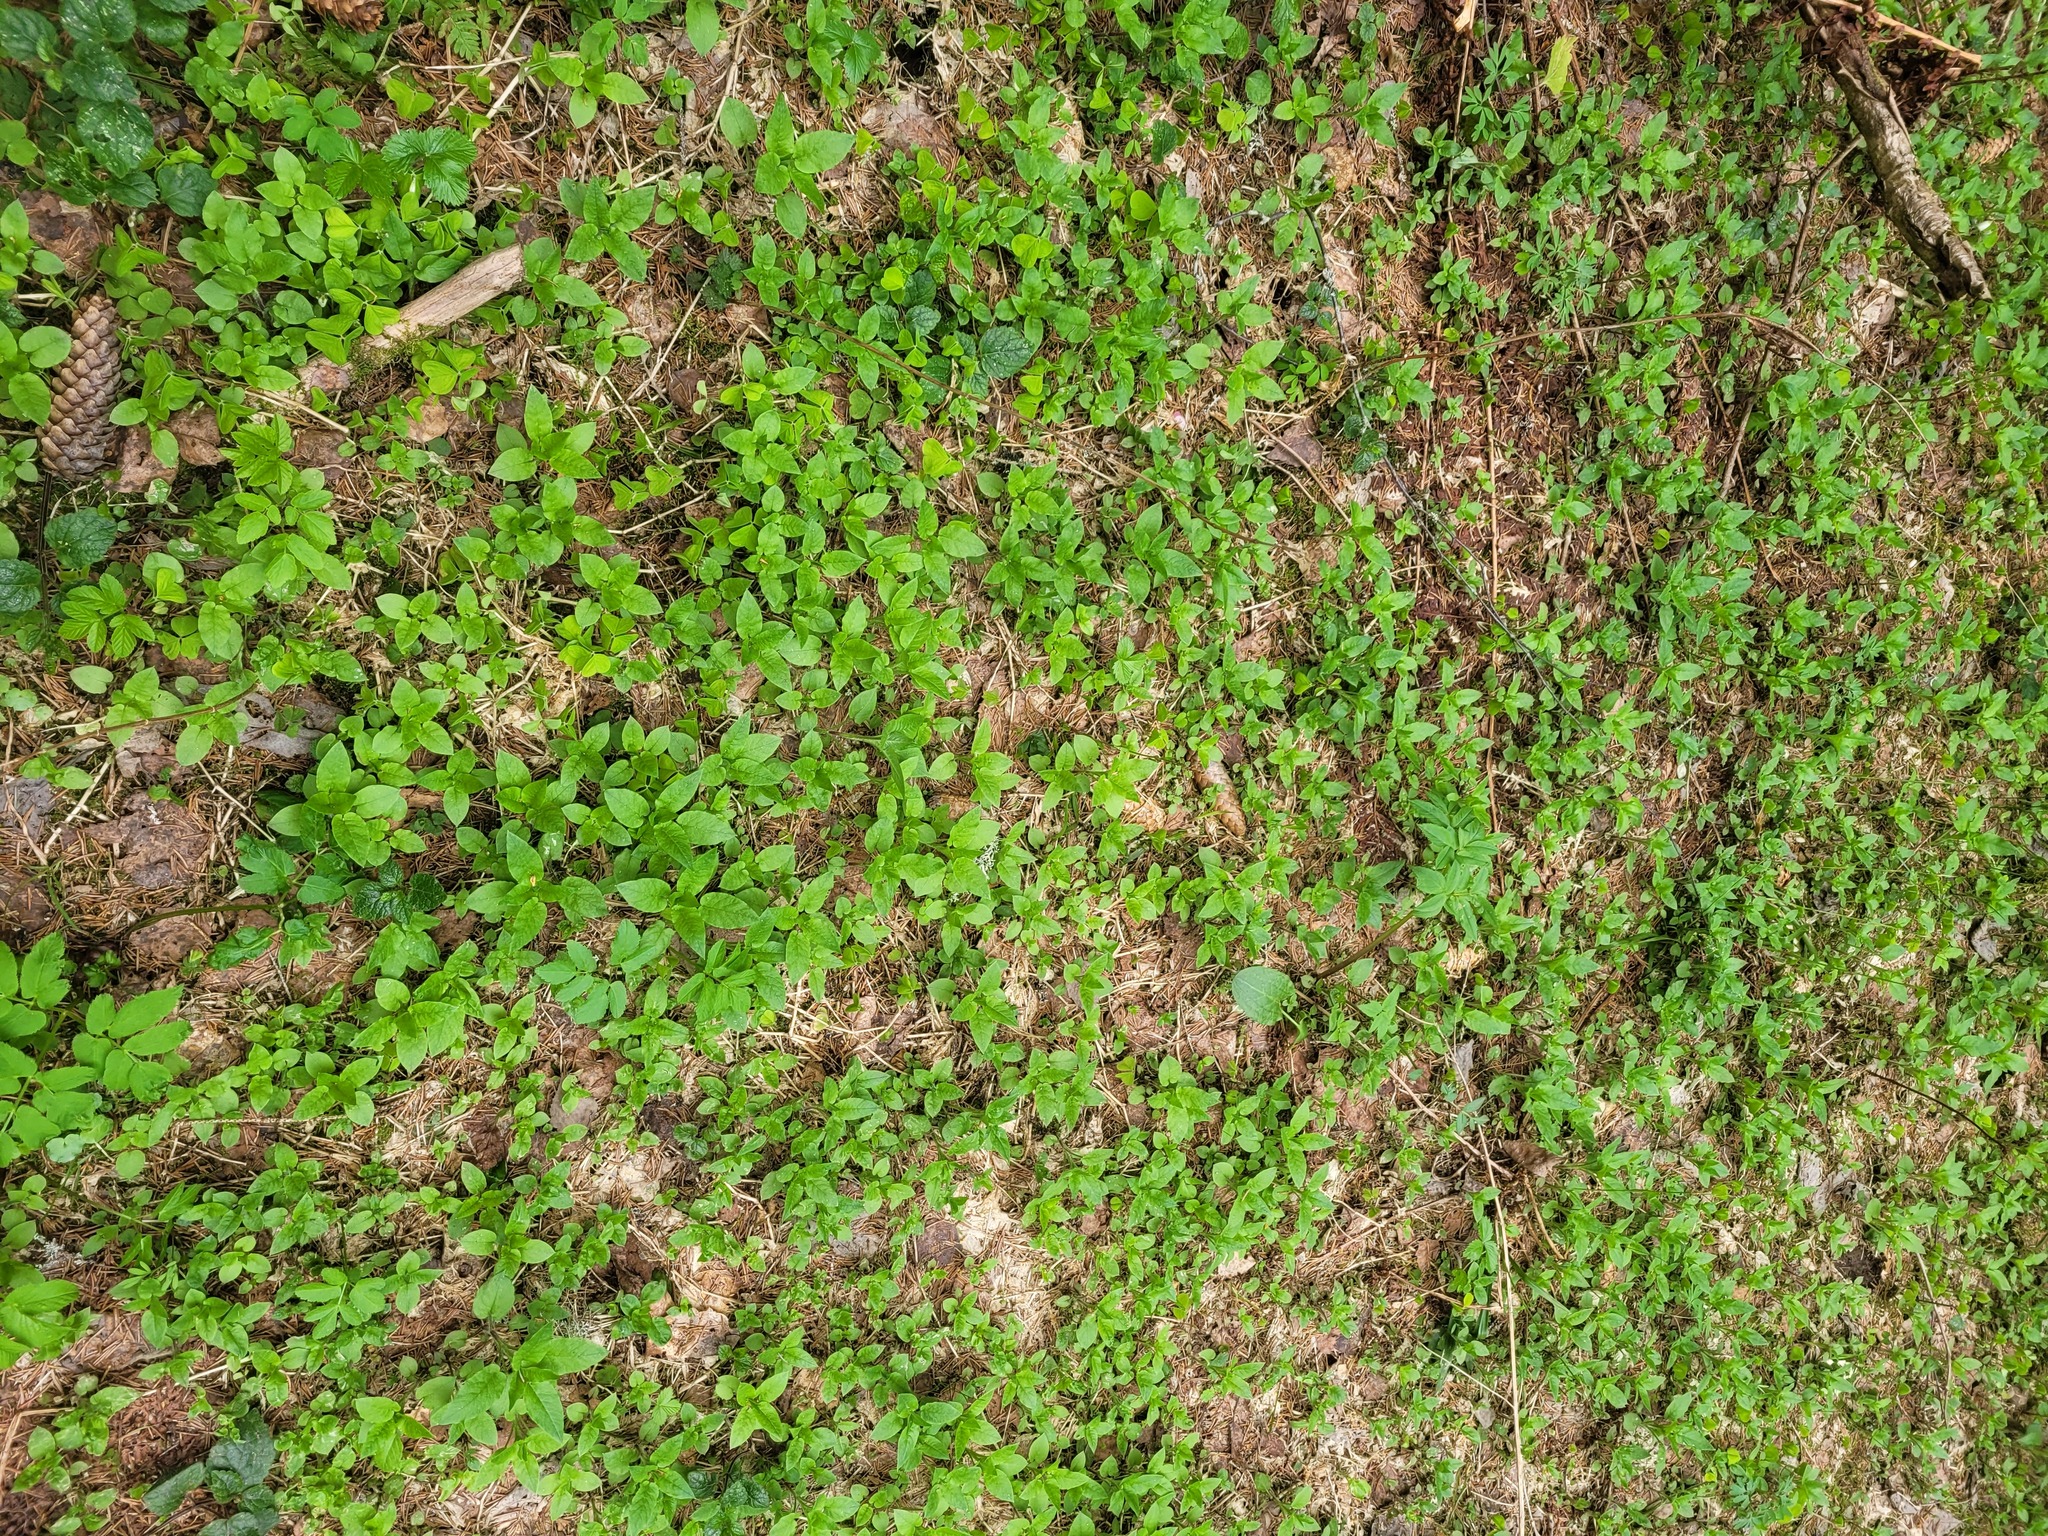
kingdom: Plantae
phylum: Tracheophyta
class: Magnoliopsida
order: Caryophyllales
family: Caryophyllaceae
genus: Stellaria
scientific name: Stellaria nemorum
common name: Wood stitchwort
